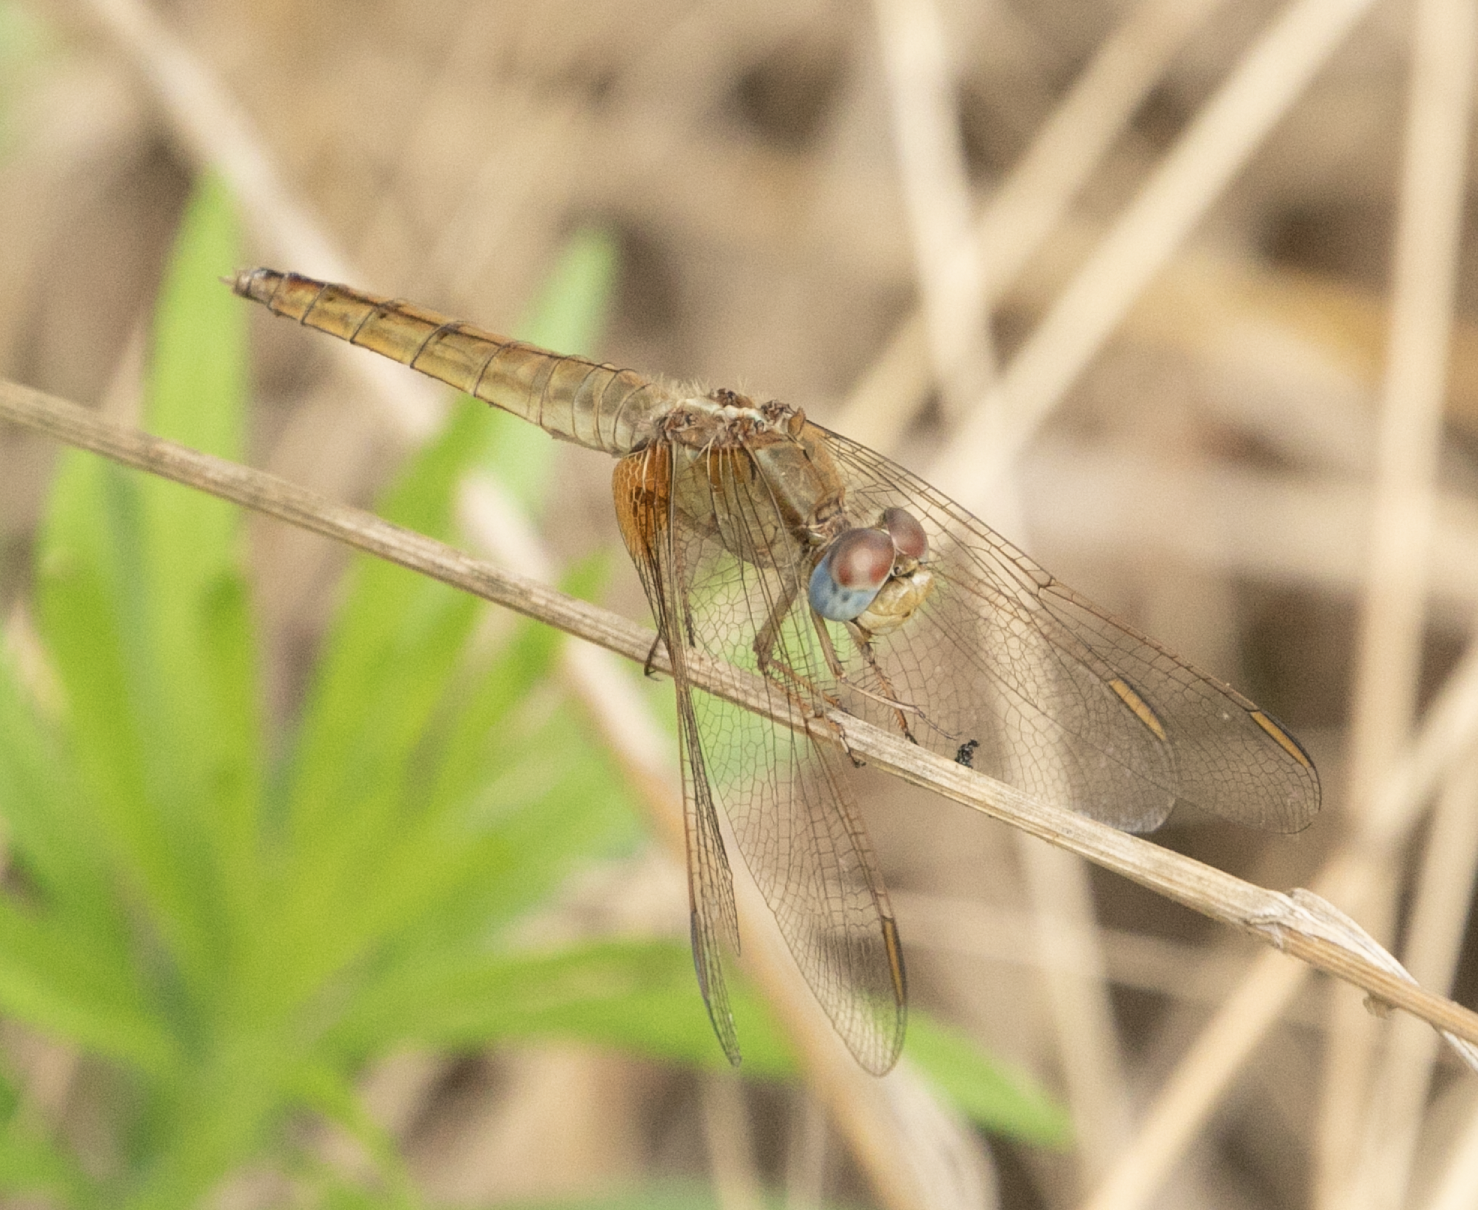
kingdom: Animalia
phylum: Arthropoda
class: Insecta
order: Odonata
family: Libellulidae
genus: Crocothemis
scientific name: Crocothemis erythraea
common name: Scarlet dragonfly
